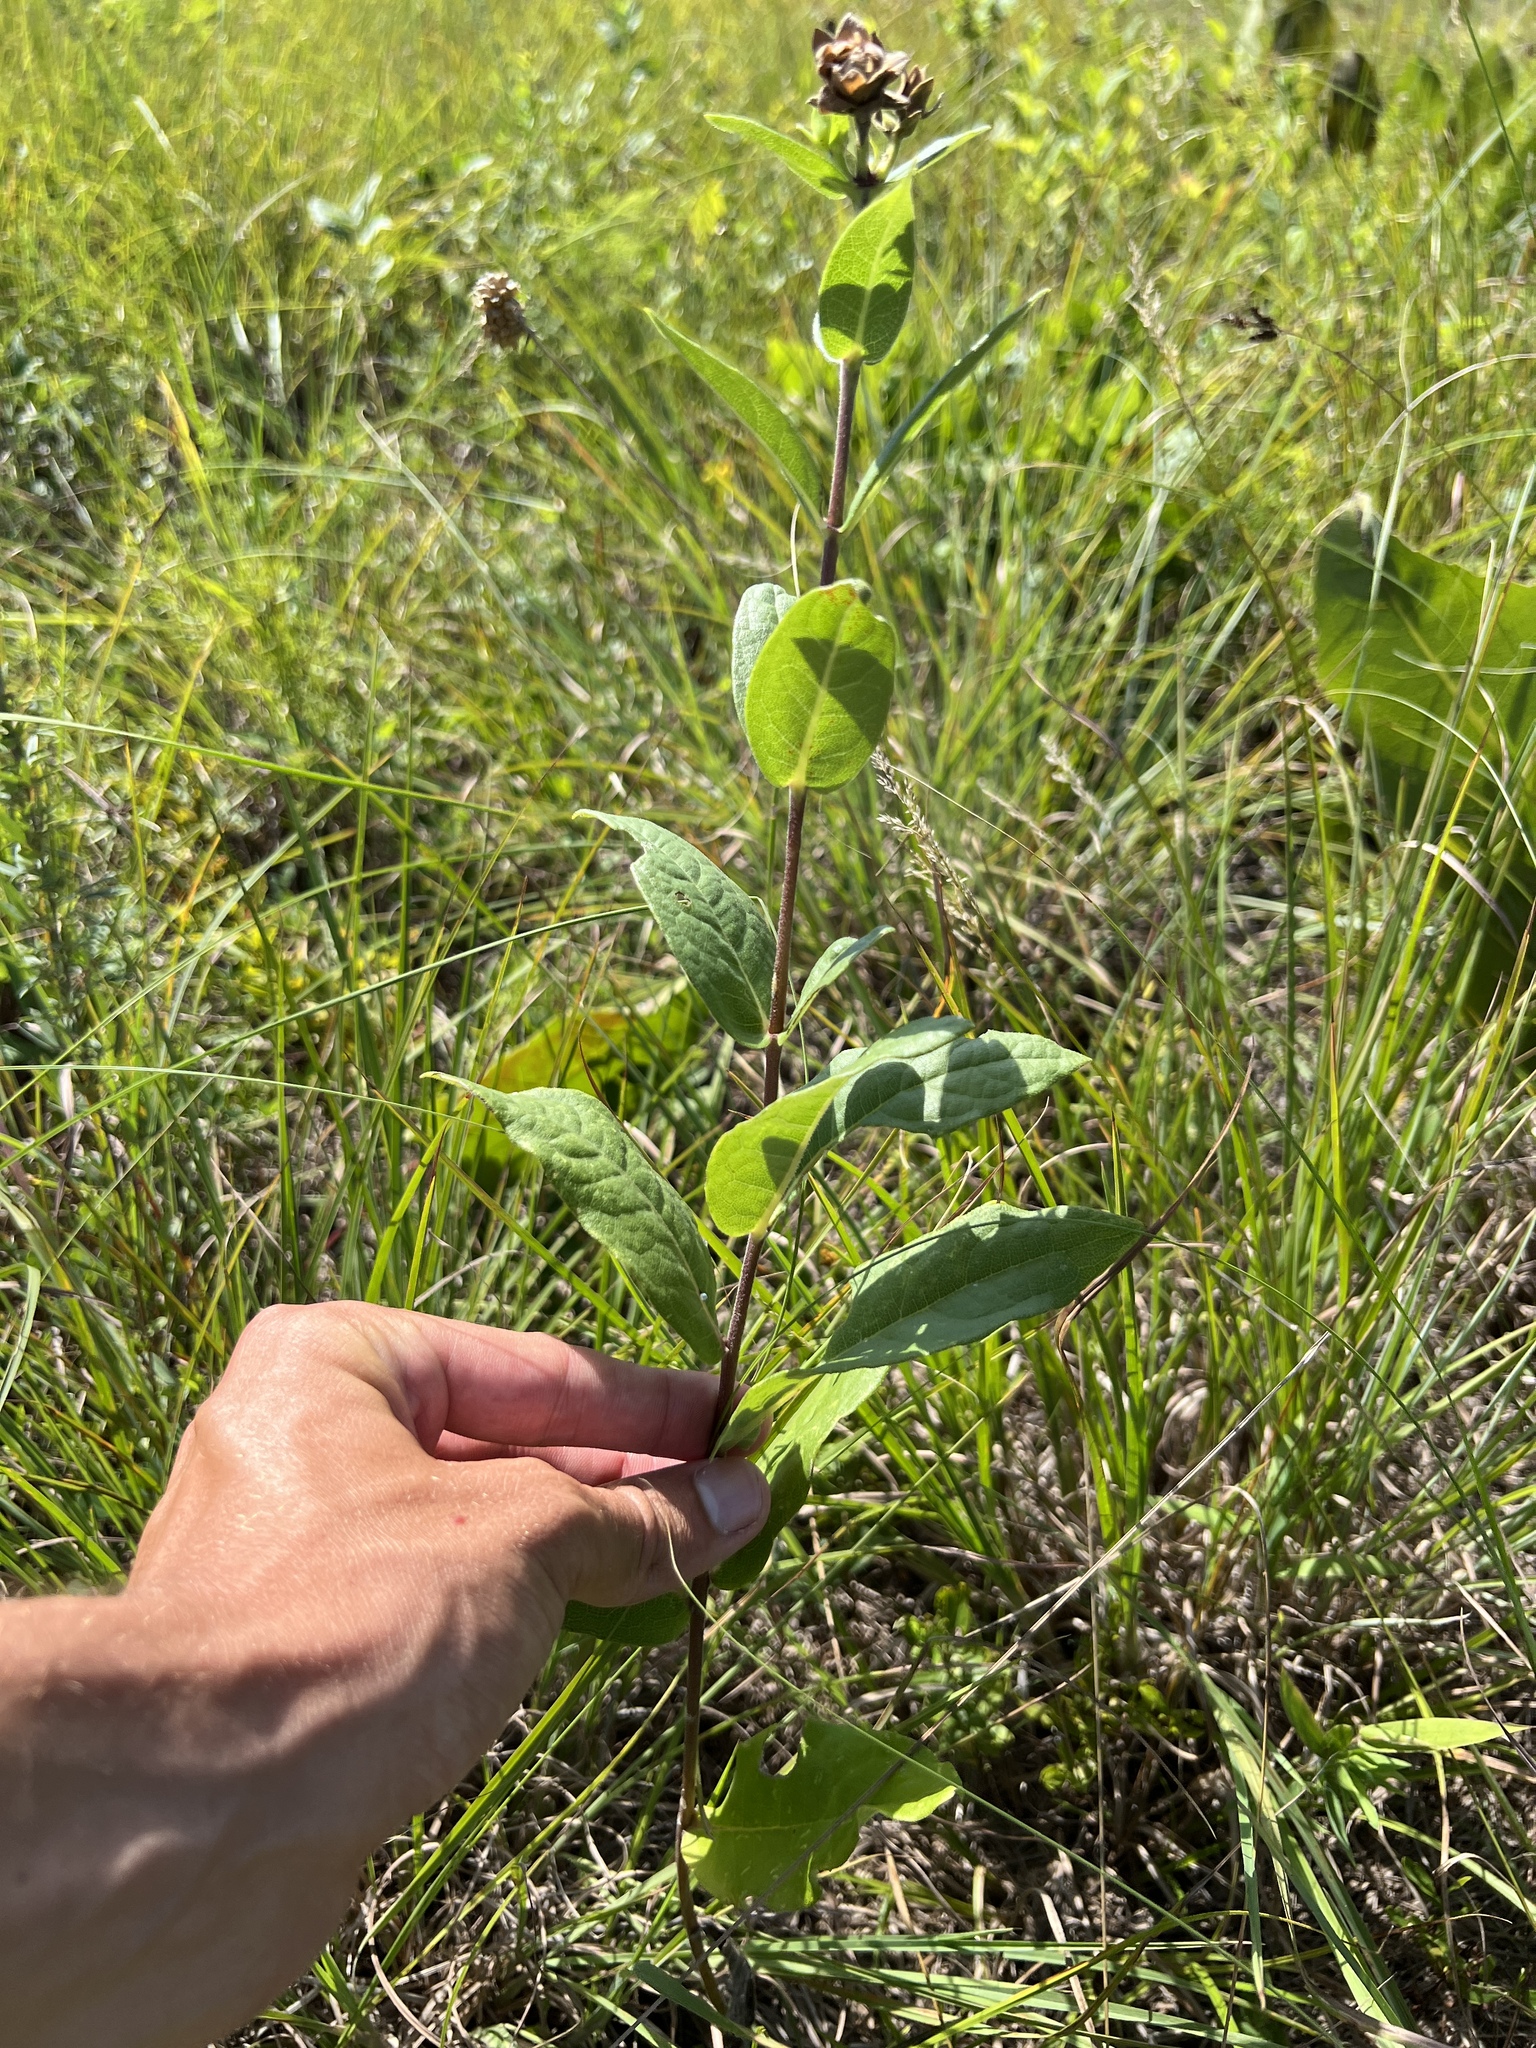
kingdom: Plantae
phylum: Tracheophyta
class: Magnoliopsida
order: Asterales
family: Asteraceae
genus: Silphium
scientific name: Silphium integrifolium
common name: Whole-leaf rosinweed
